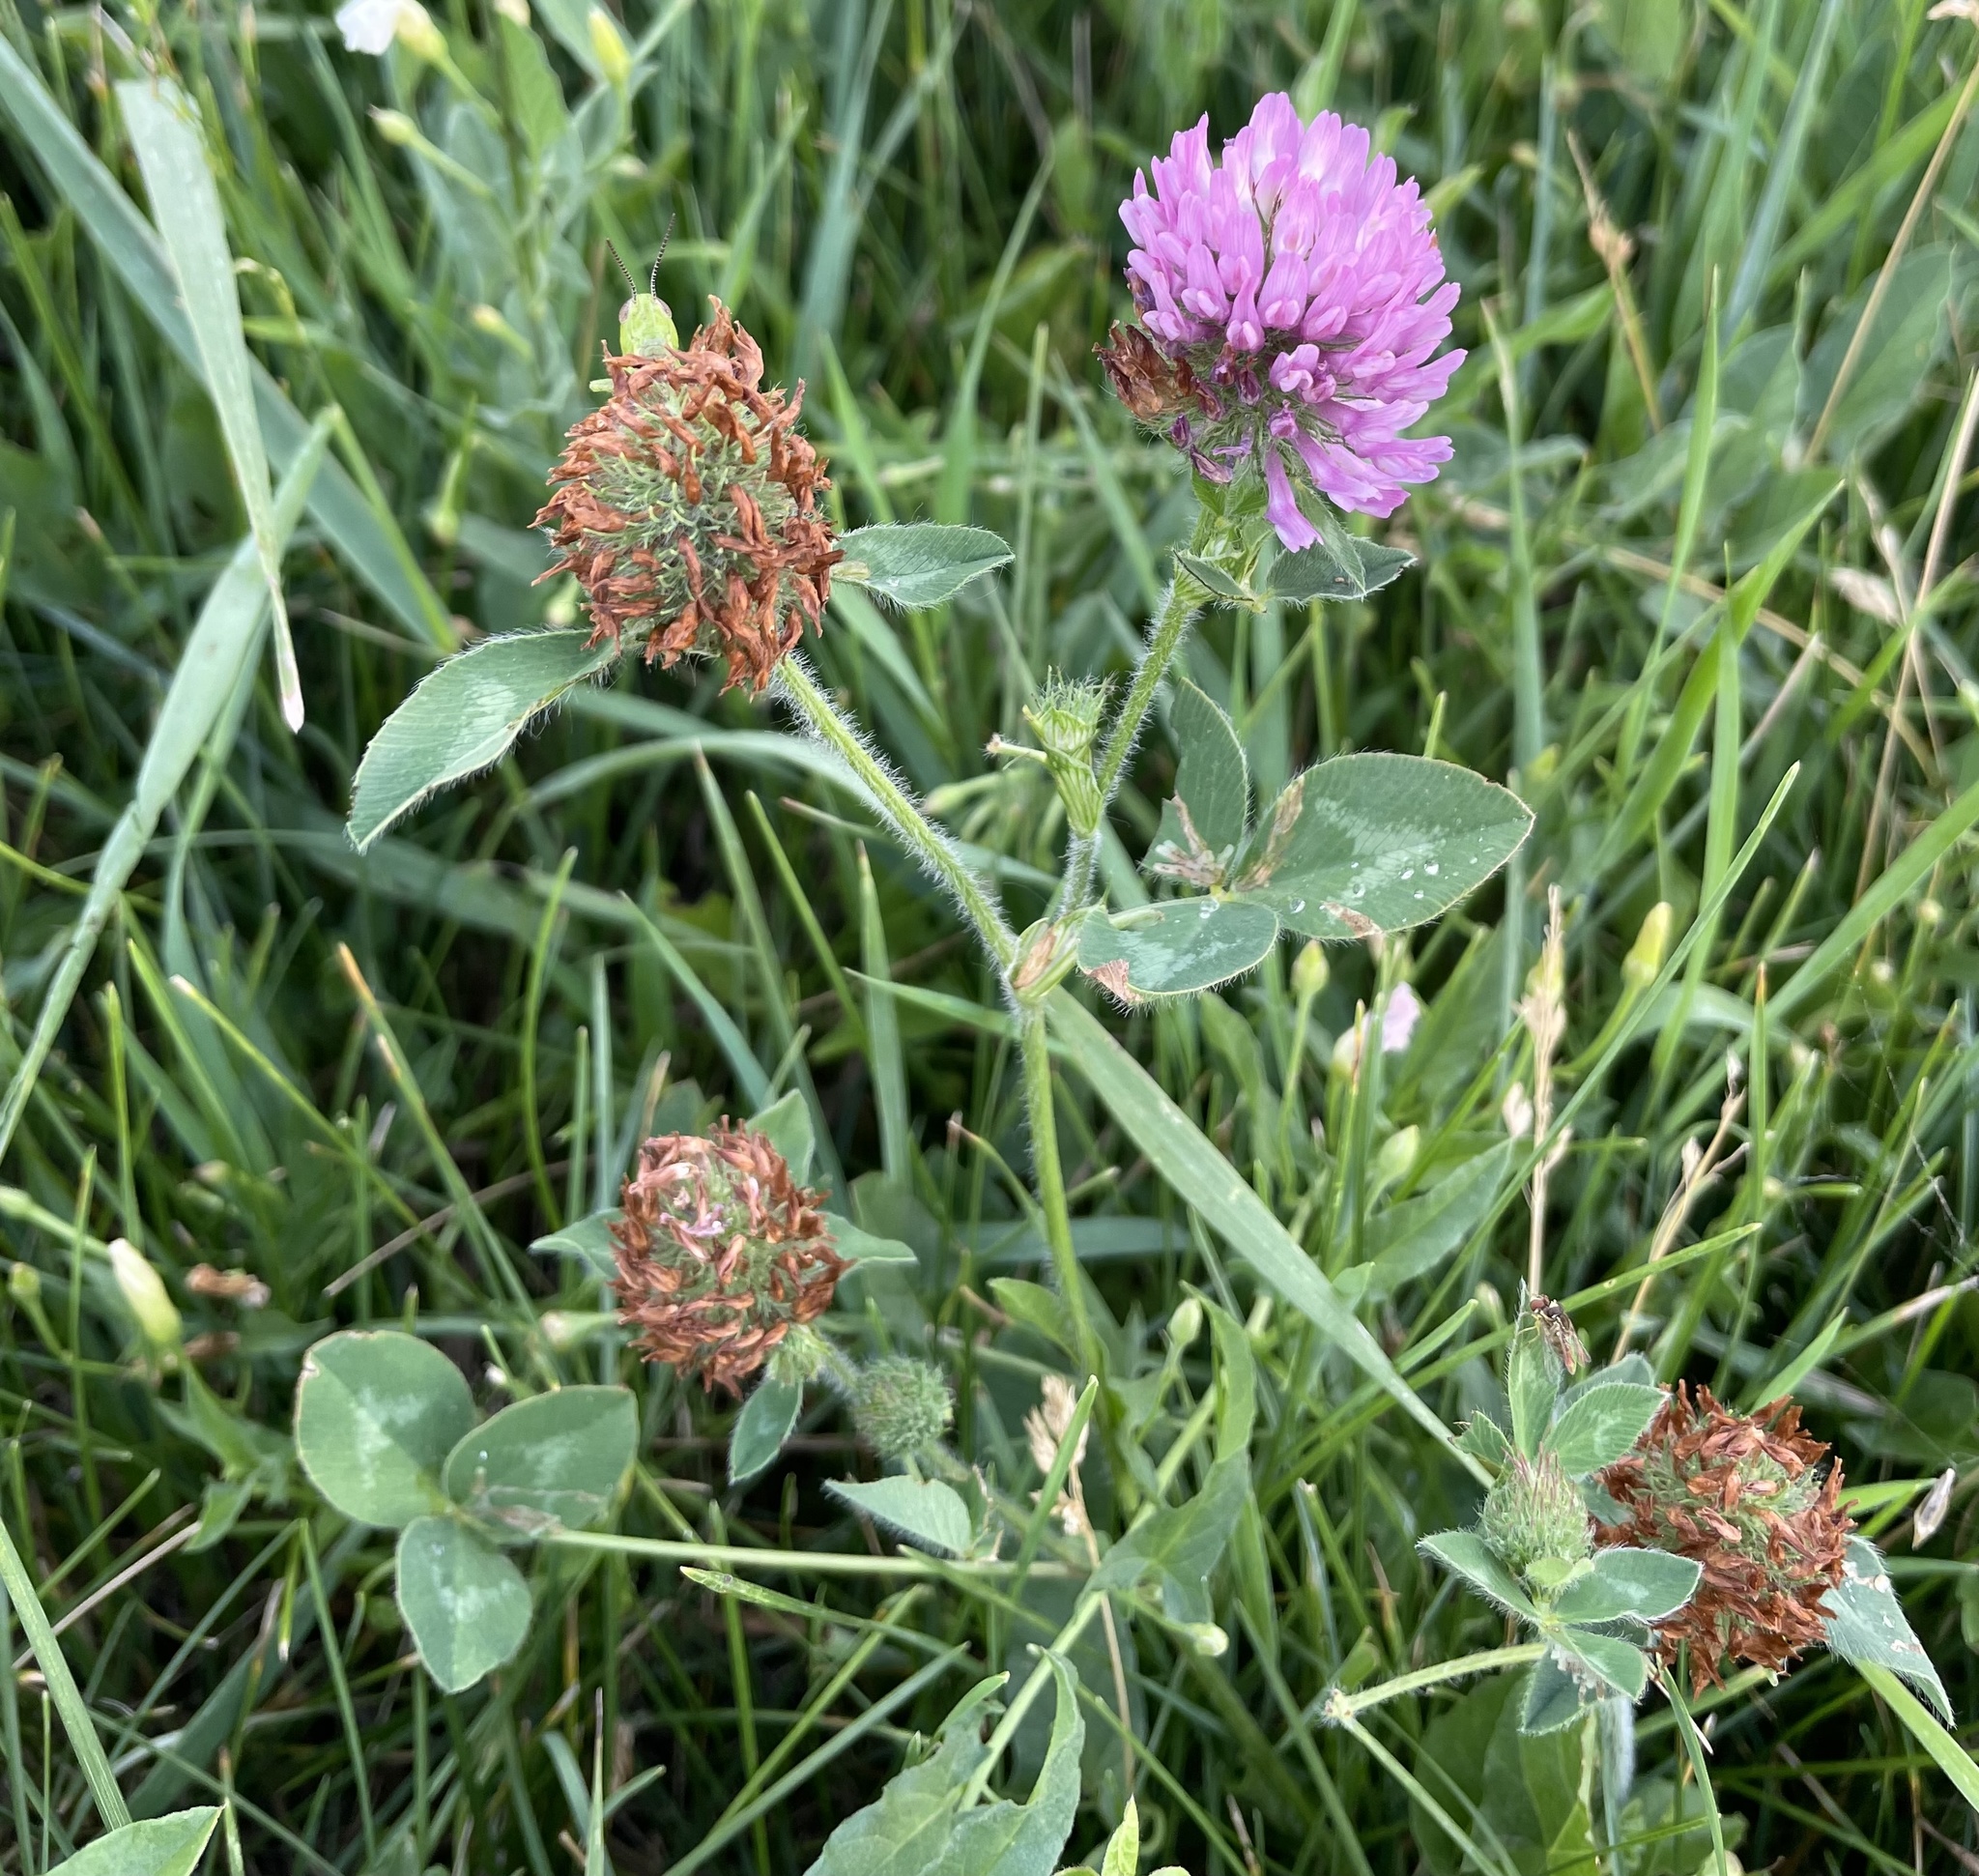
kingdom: Plantae
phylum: Tracheophyta
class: Magnoliopsida
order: Fabales
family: Fabaceae
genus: Trifolium
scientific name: Trifolium pratense
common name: Red clover
